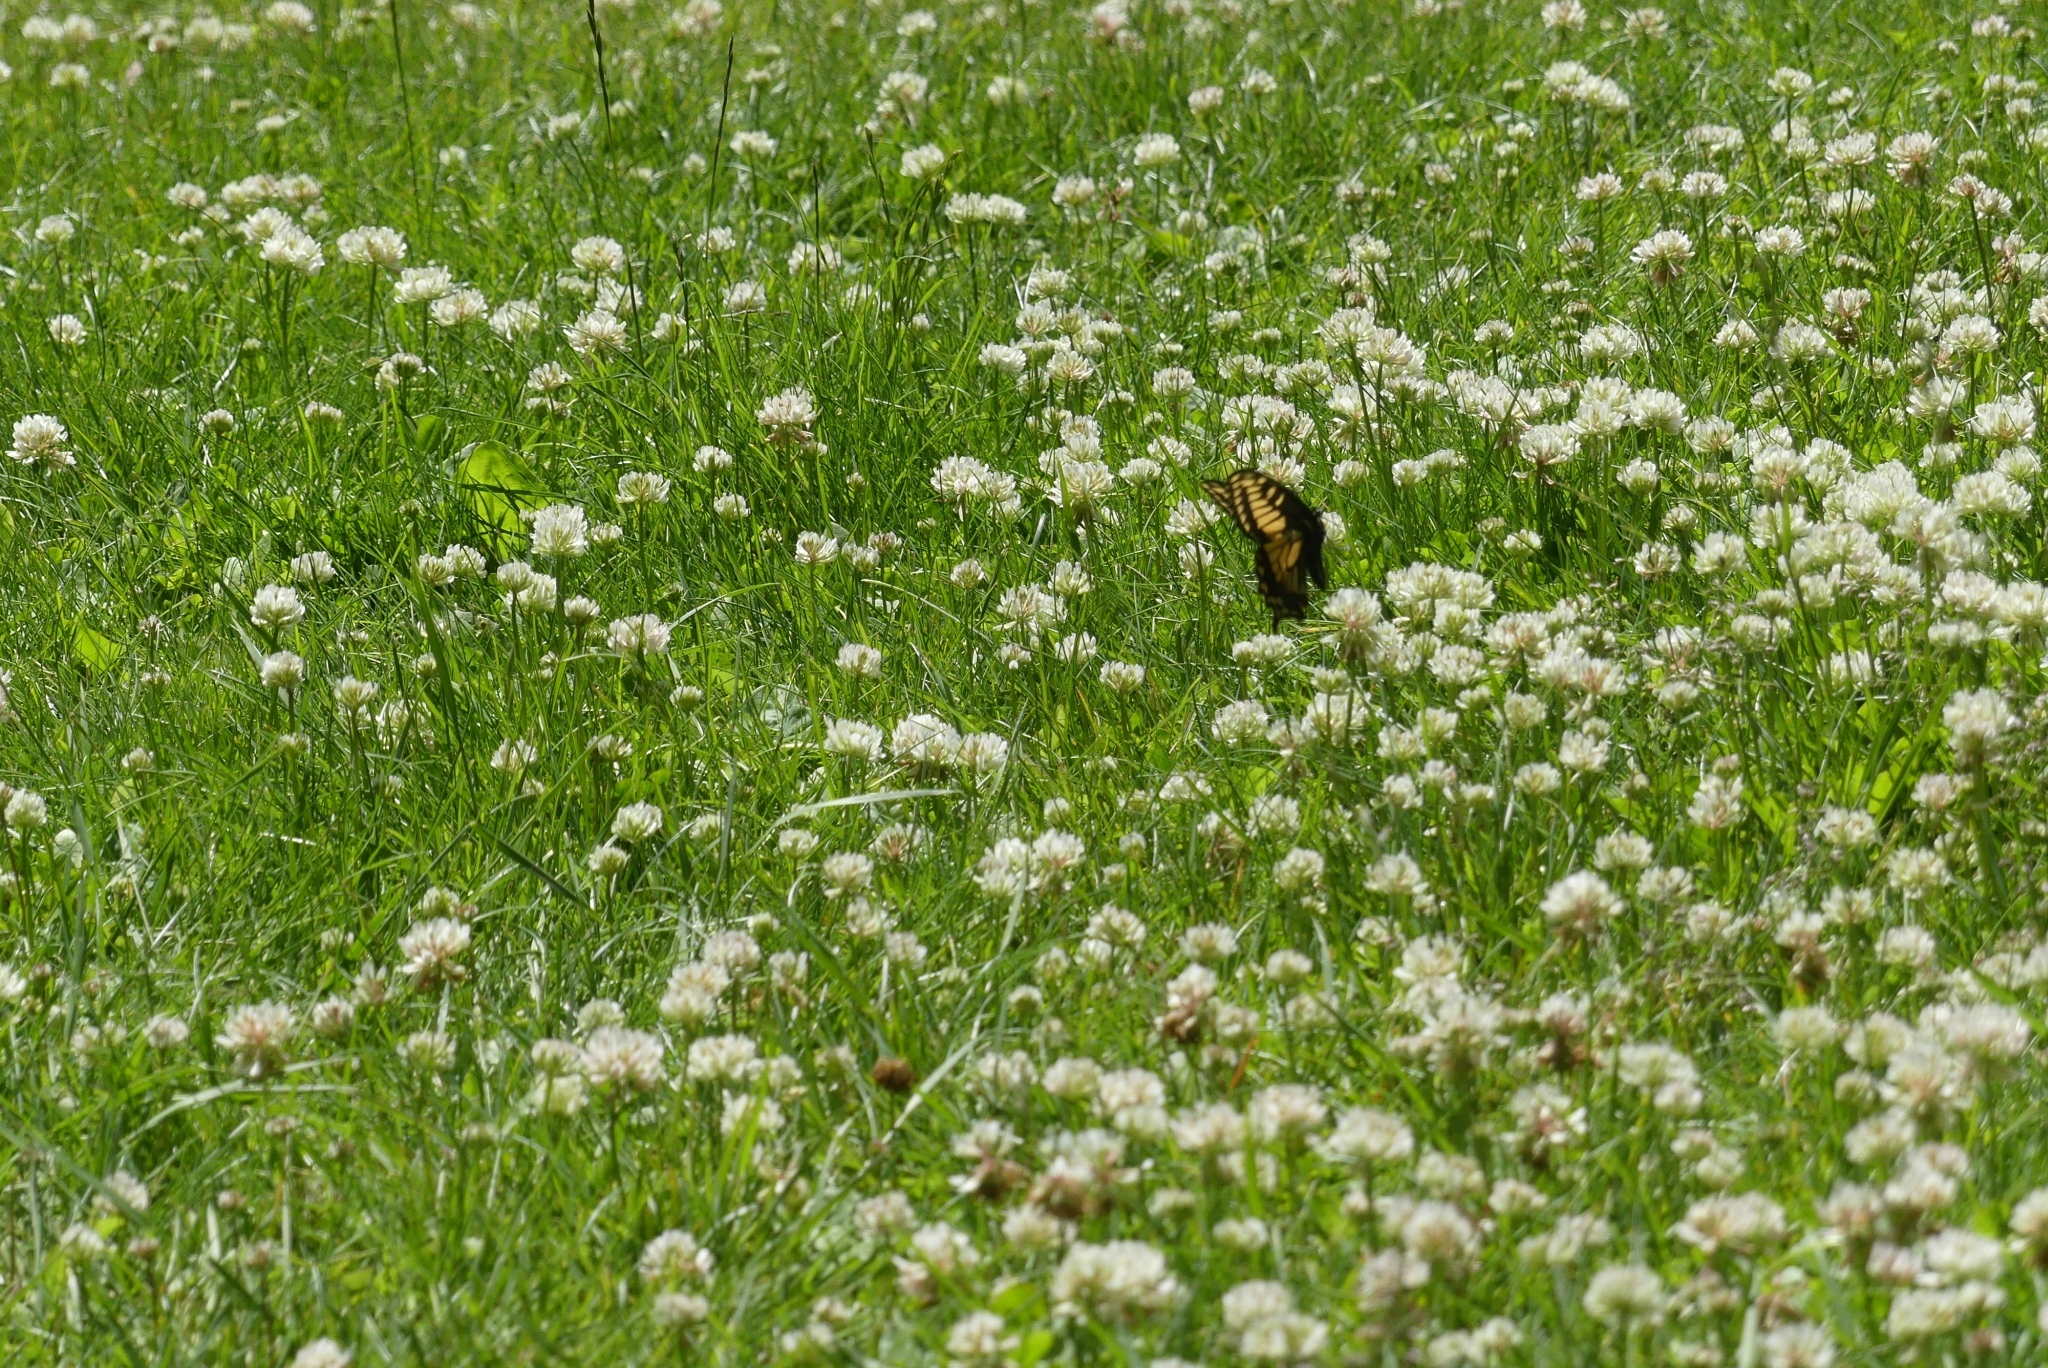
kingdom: Animalia
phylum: Arthropoda
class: Insecta
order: Lepidoptera
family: Papilionidae
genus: Papilio
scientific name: Papilio zelicaon
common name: Anise swallowtail
